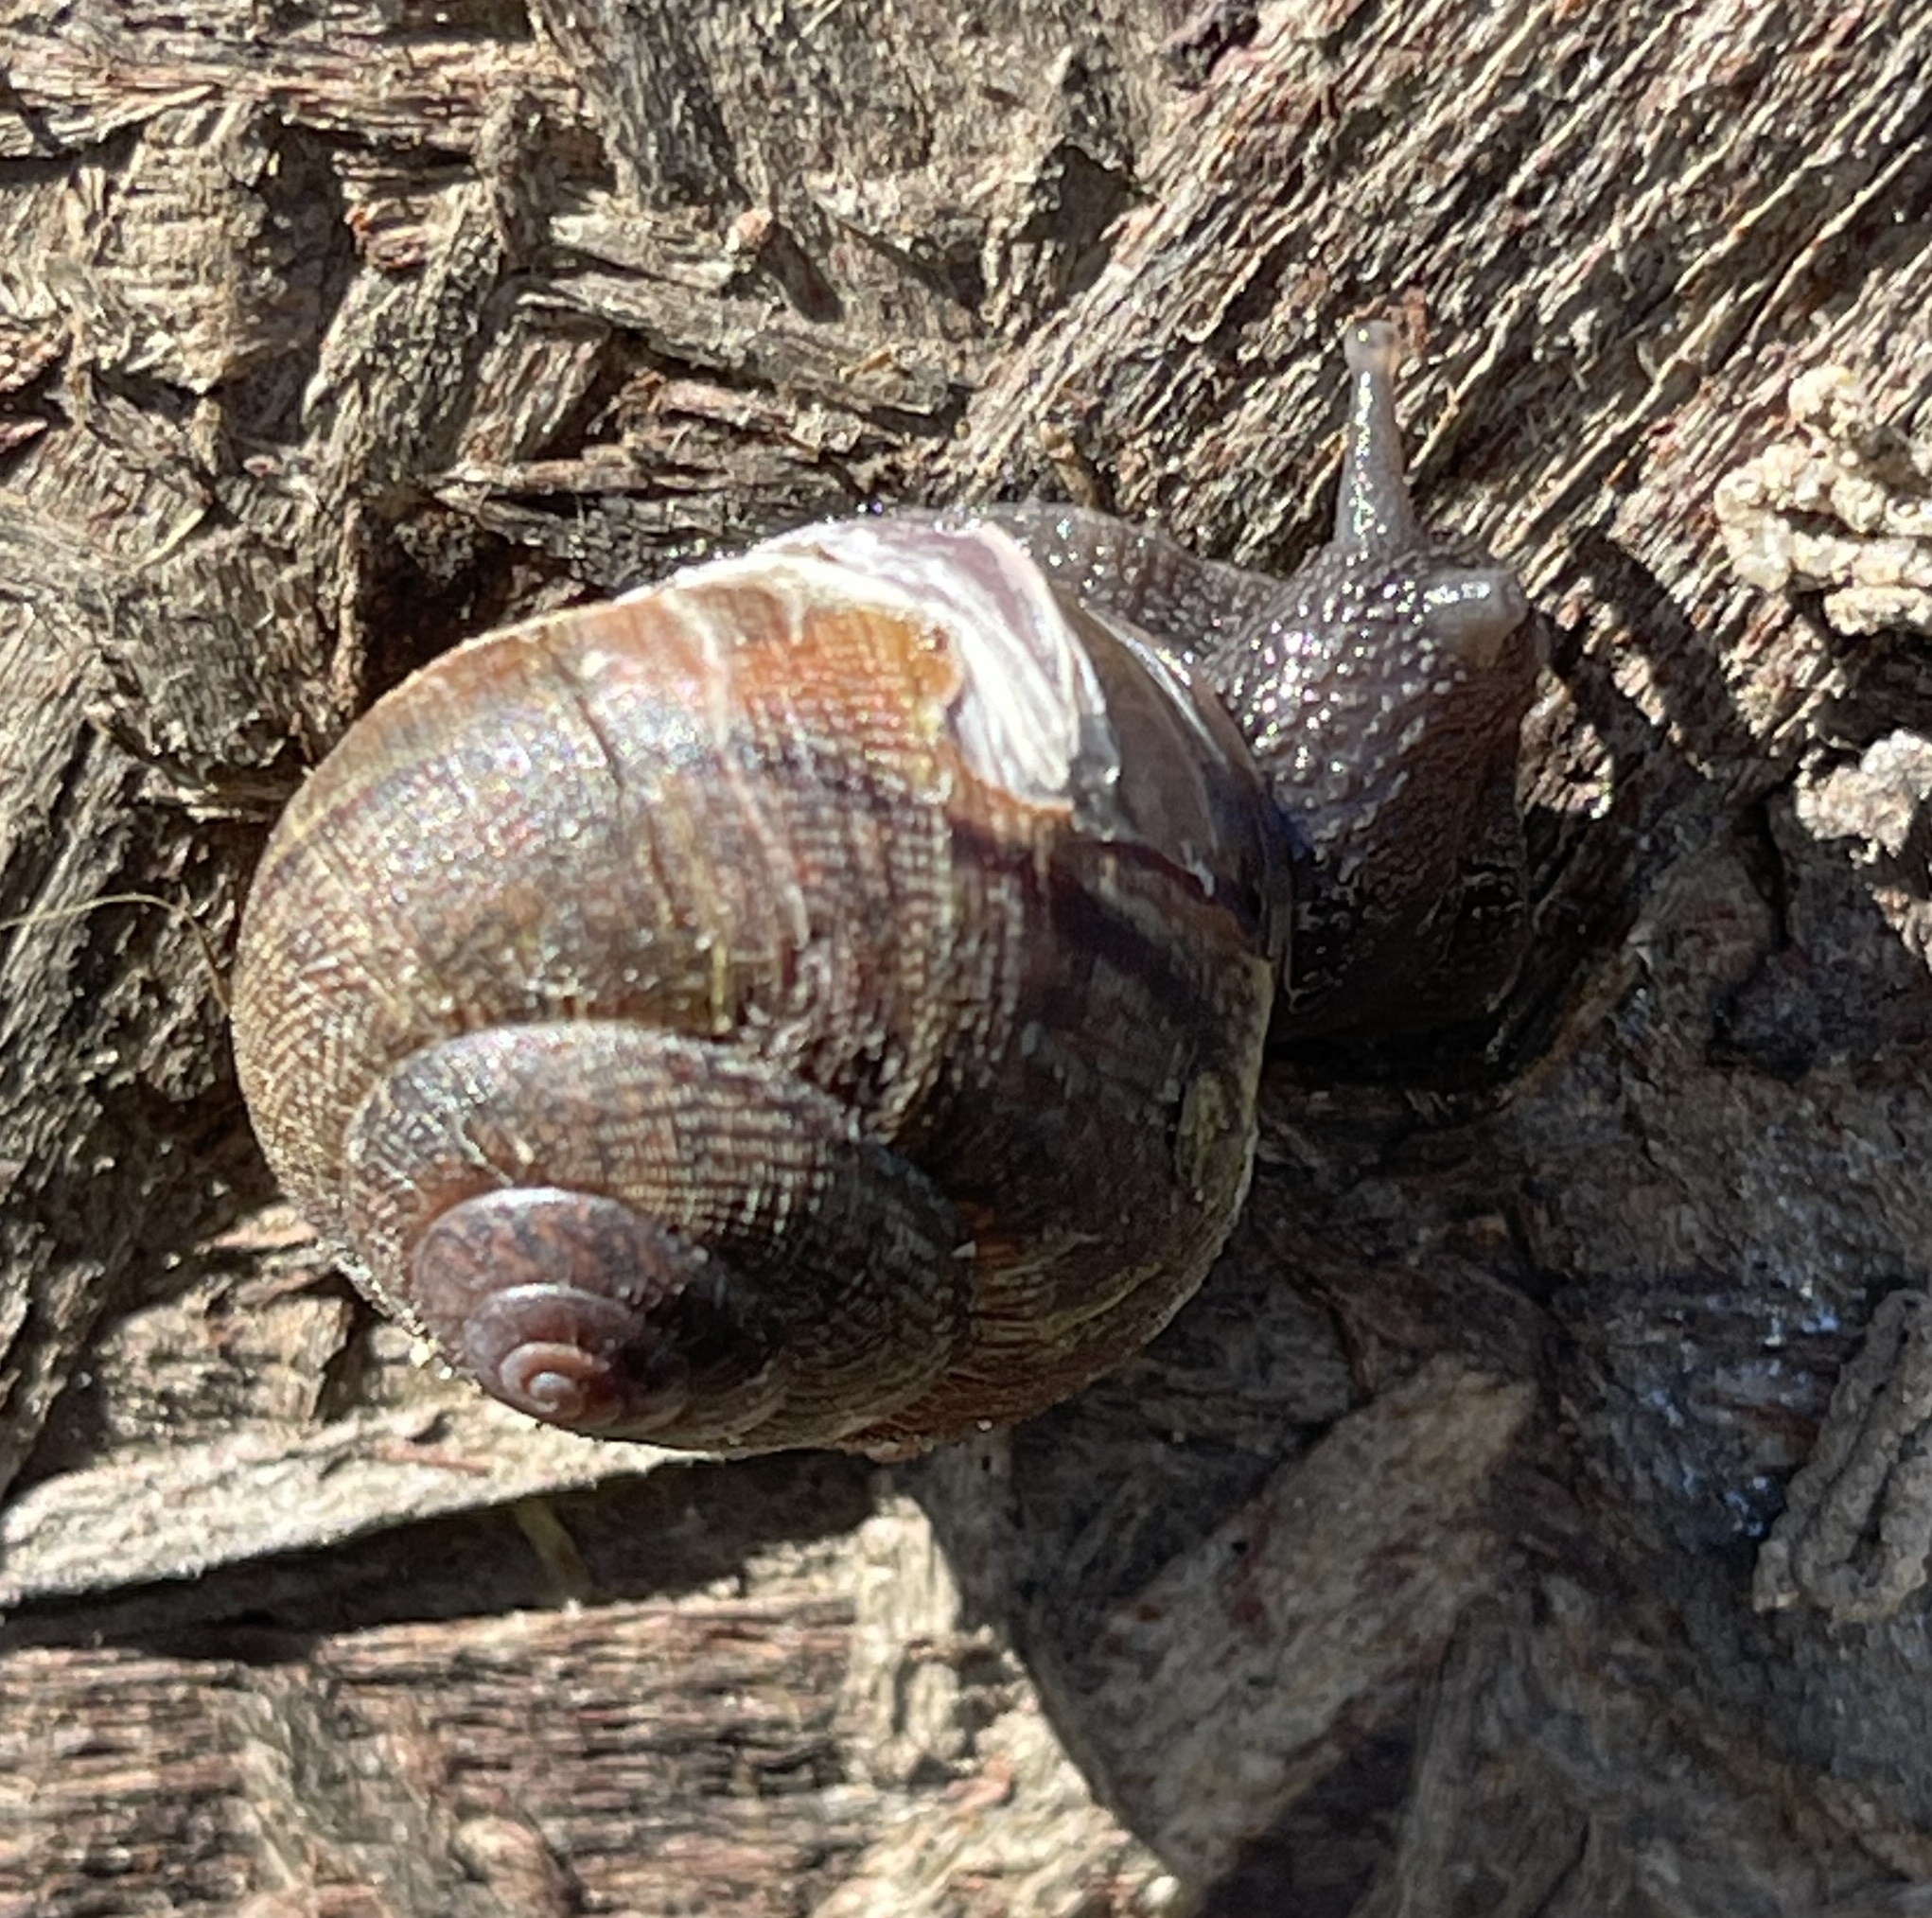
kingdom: Animalia
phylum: Mollusca
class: Gastropoda
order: Stylommatophora
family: Xanthonychidae
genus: Helminthoglypta
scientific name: Helminthoglypta nickliniana
